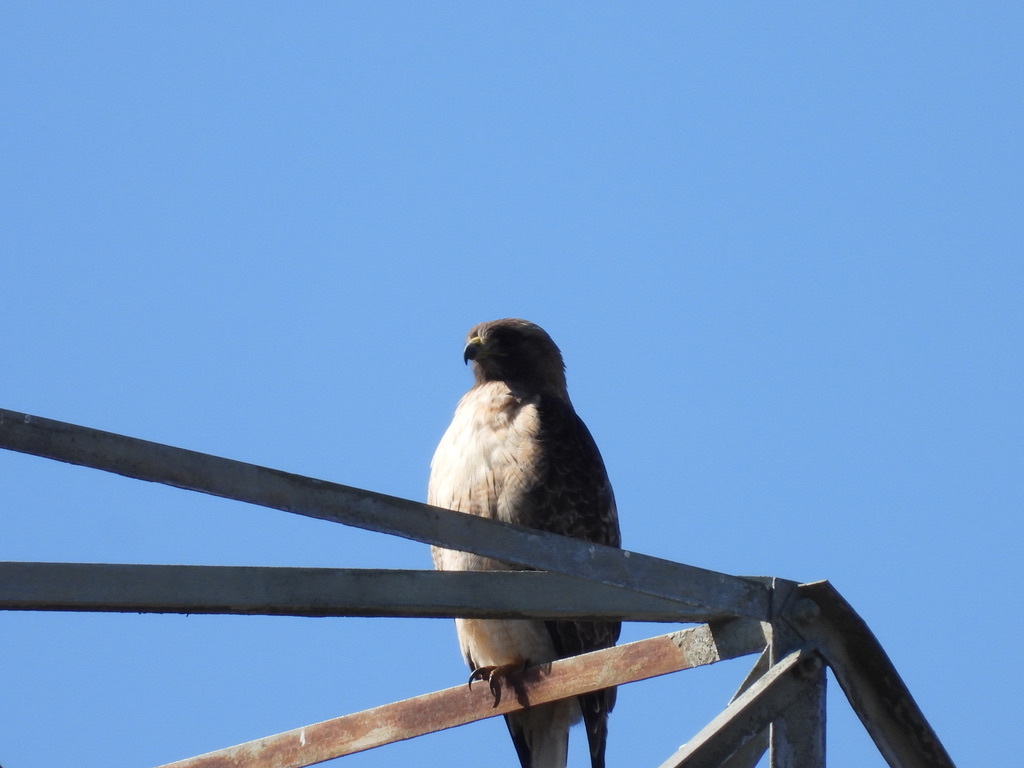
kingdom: Animalia
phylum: Chordata
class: Aves
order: Accipitriformes
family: Accipitridae
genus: Buteo
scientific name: Buteo jamaicensis
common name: Red-tailed hawk
